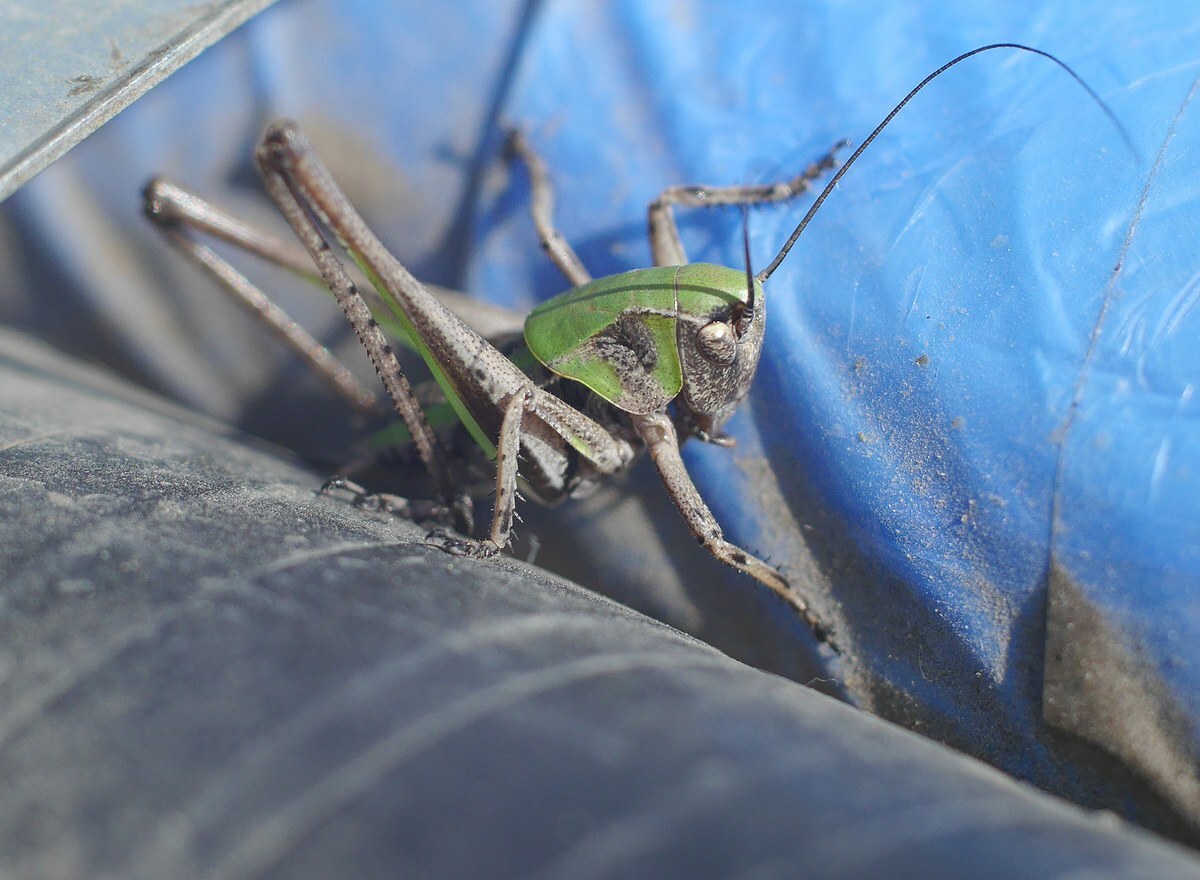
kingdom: Animalia
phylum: Arthropoda
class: Insecta
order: Orthoptera
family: Tettigoniidae
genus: Decticus
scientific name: Decticus verrucivorus
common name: Wart-biter
